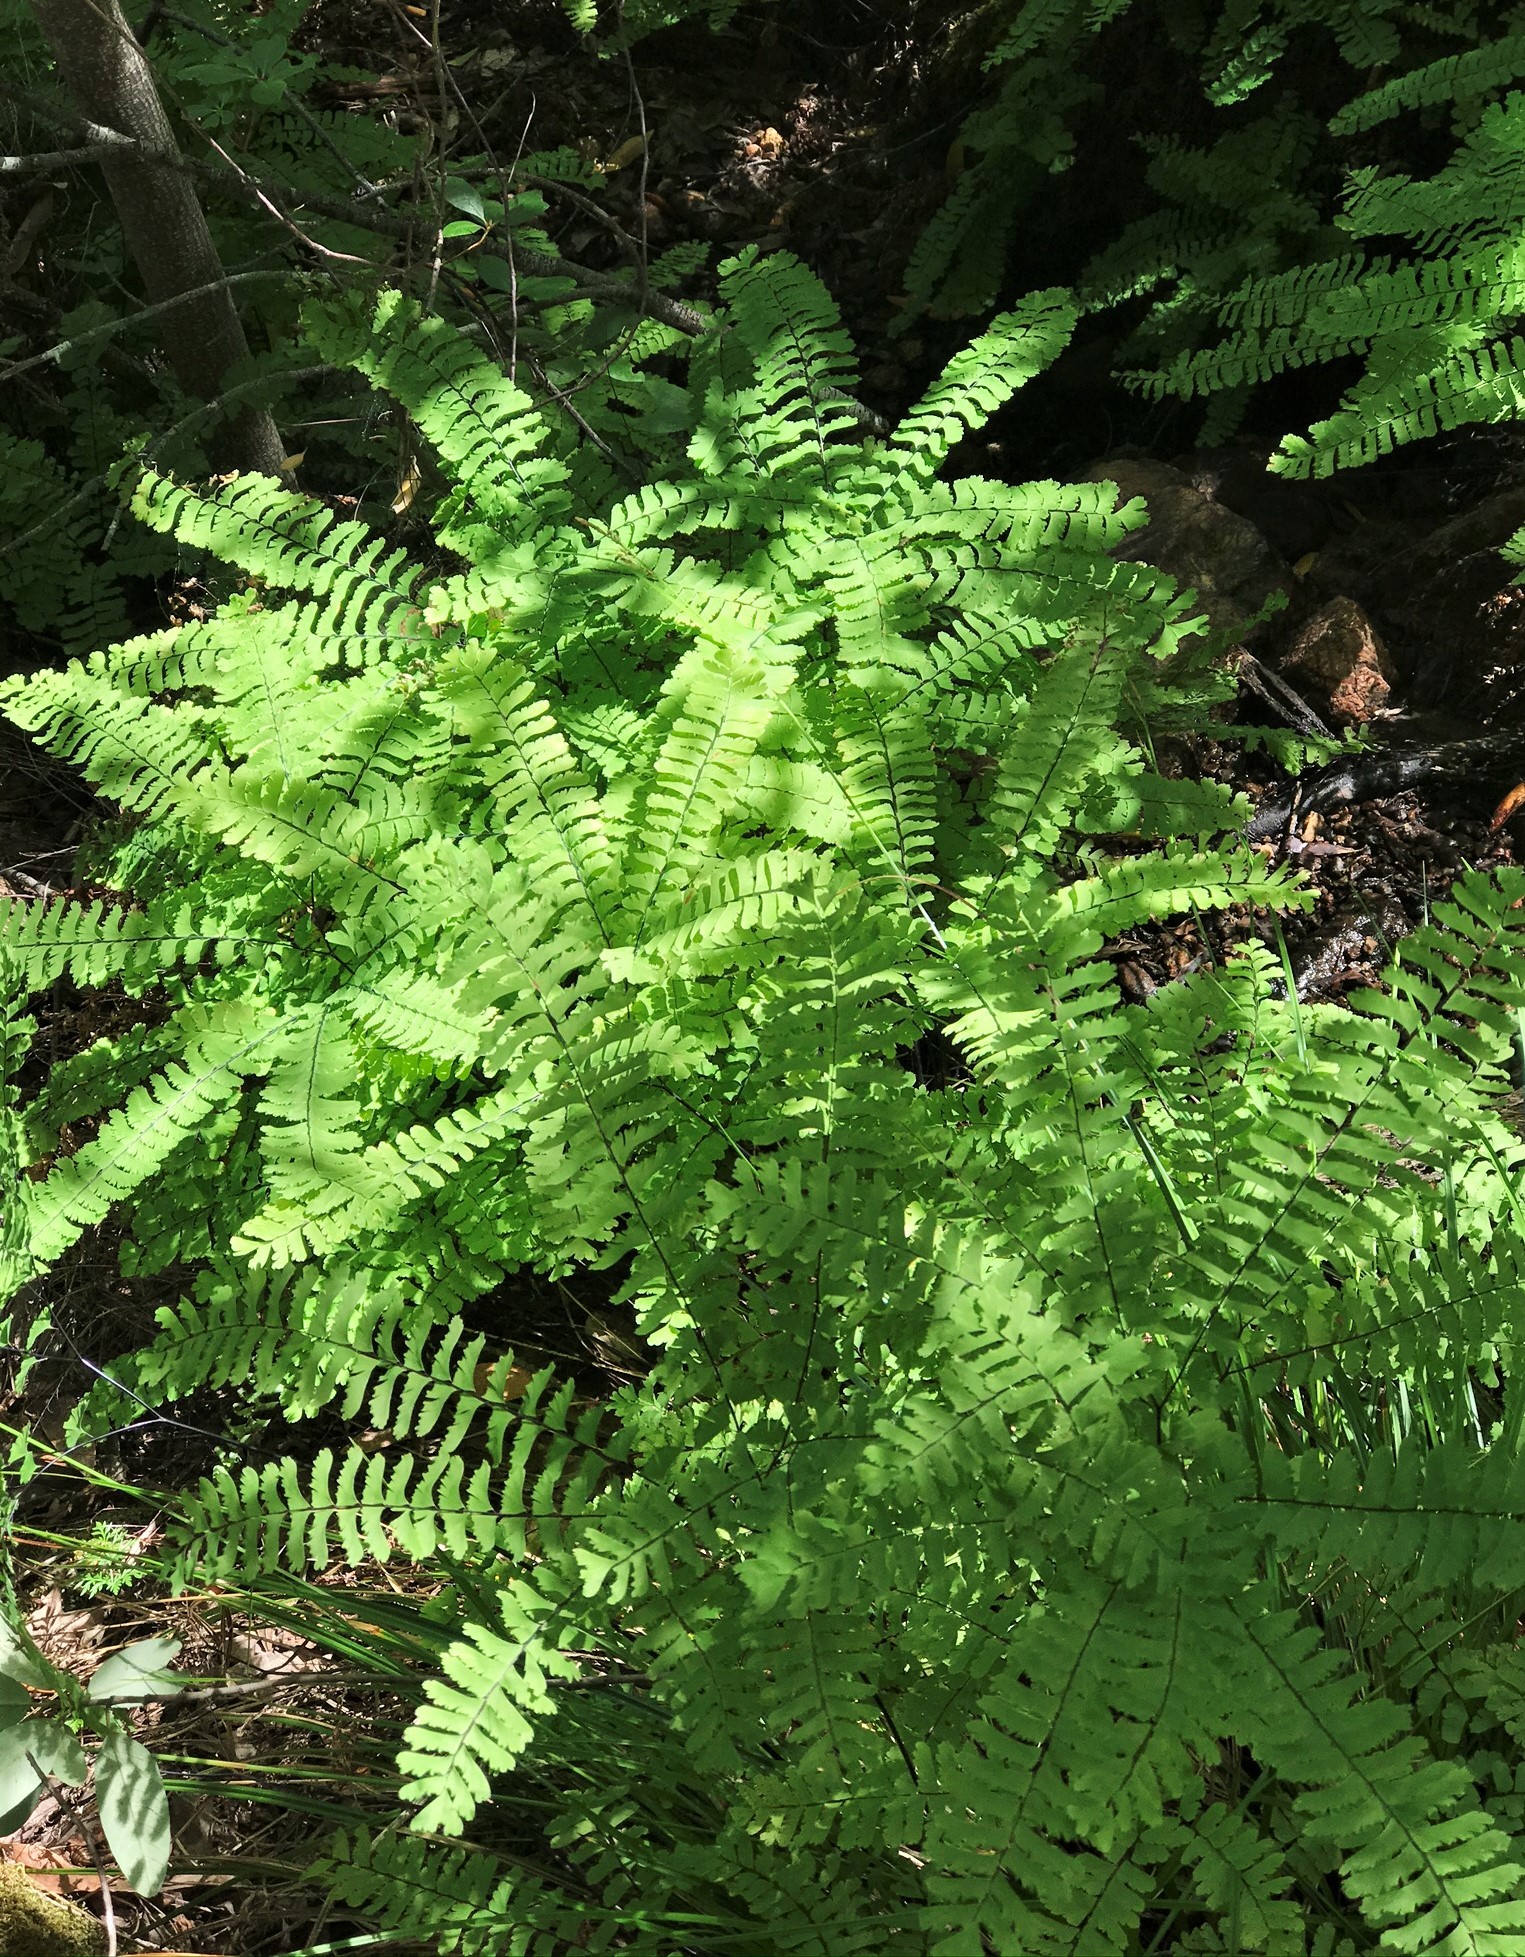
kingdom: Plantae
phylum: Tracheophyta
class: Polypodiopsida
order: Polypodiales
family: Pteridaceae
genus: Adiantum
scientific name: Adiantum aleuticum
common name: Aleutian maidenhair fern
